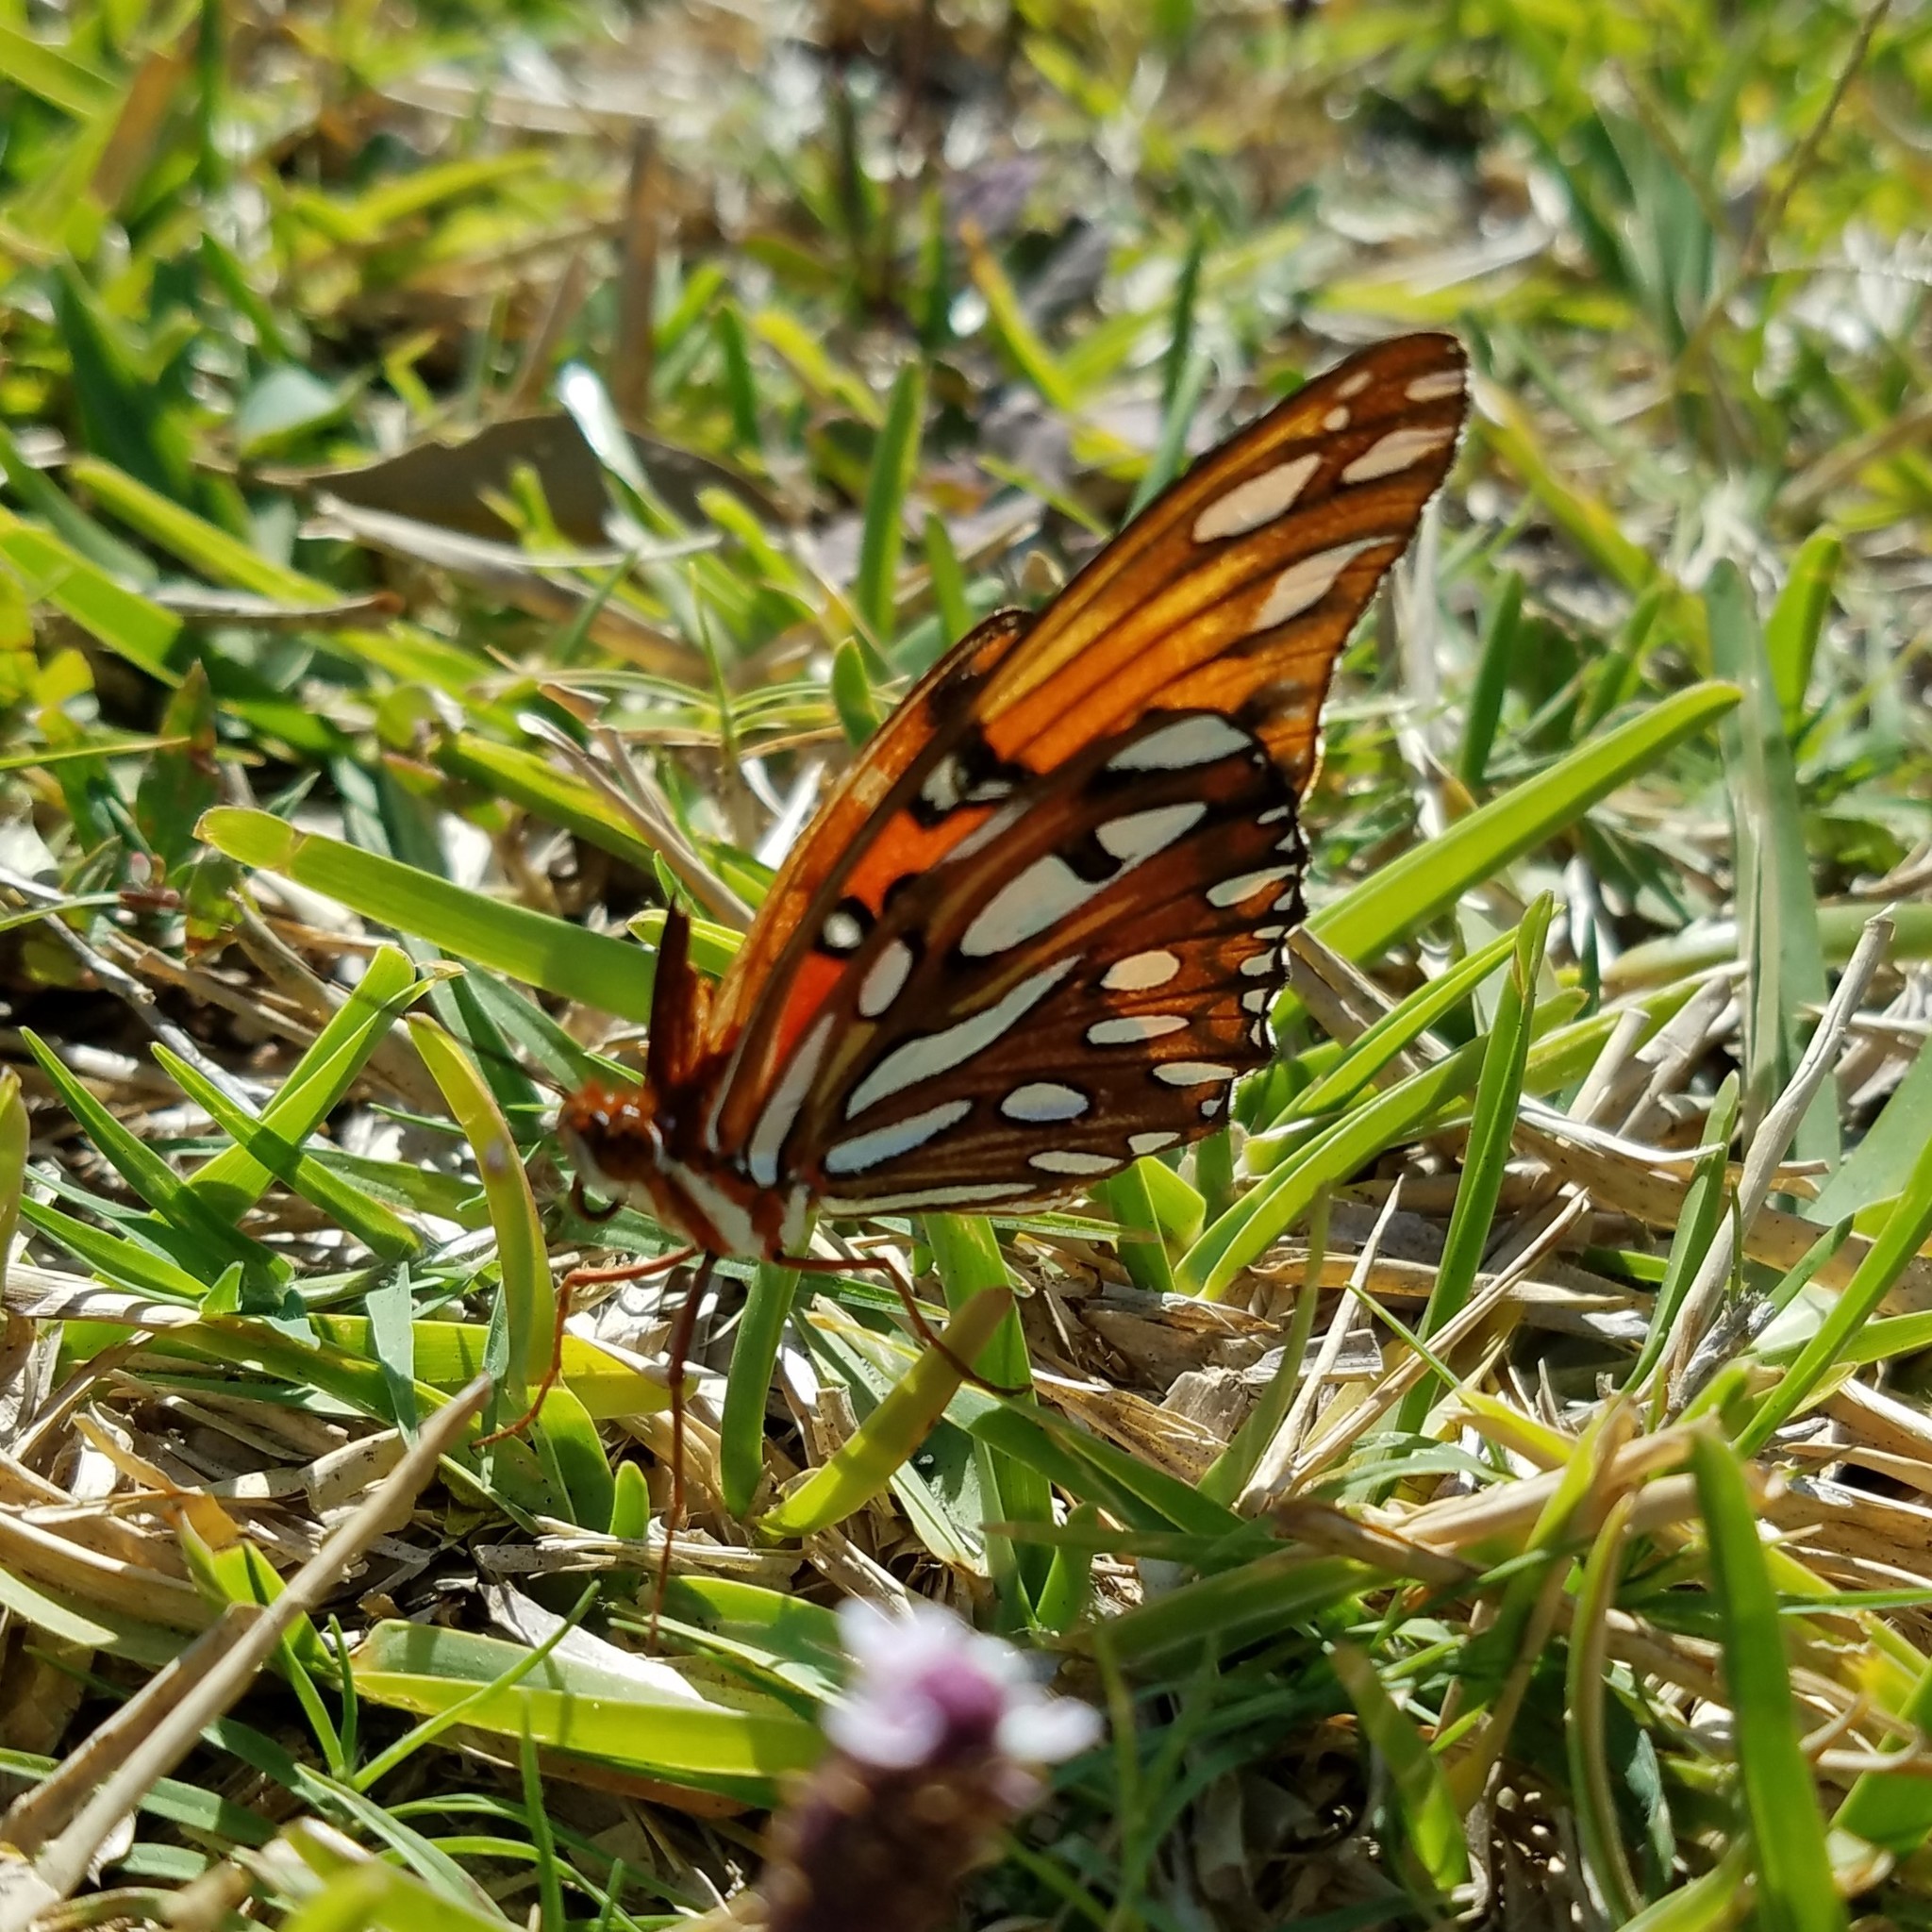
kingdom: Animalia
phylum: Arthropoda
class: Insecta
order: Lepidoptera
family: Nymphalidae
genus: Dione
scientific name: Dione vanillae
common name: Gulf fritillary
